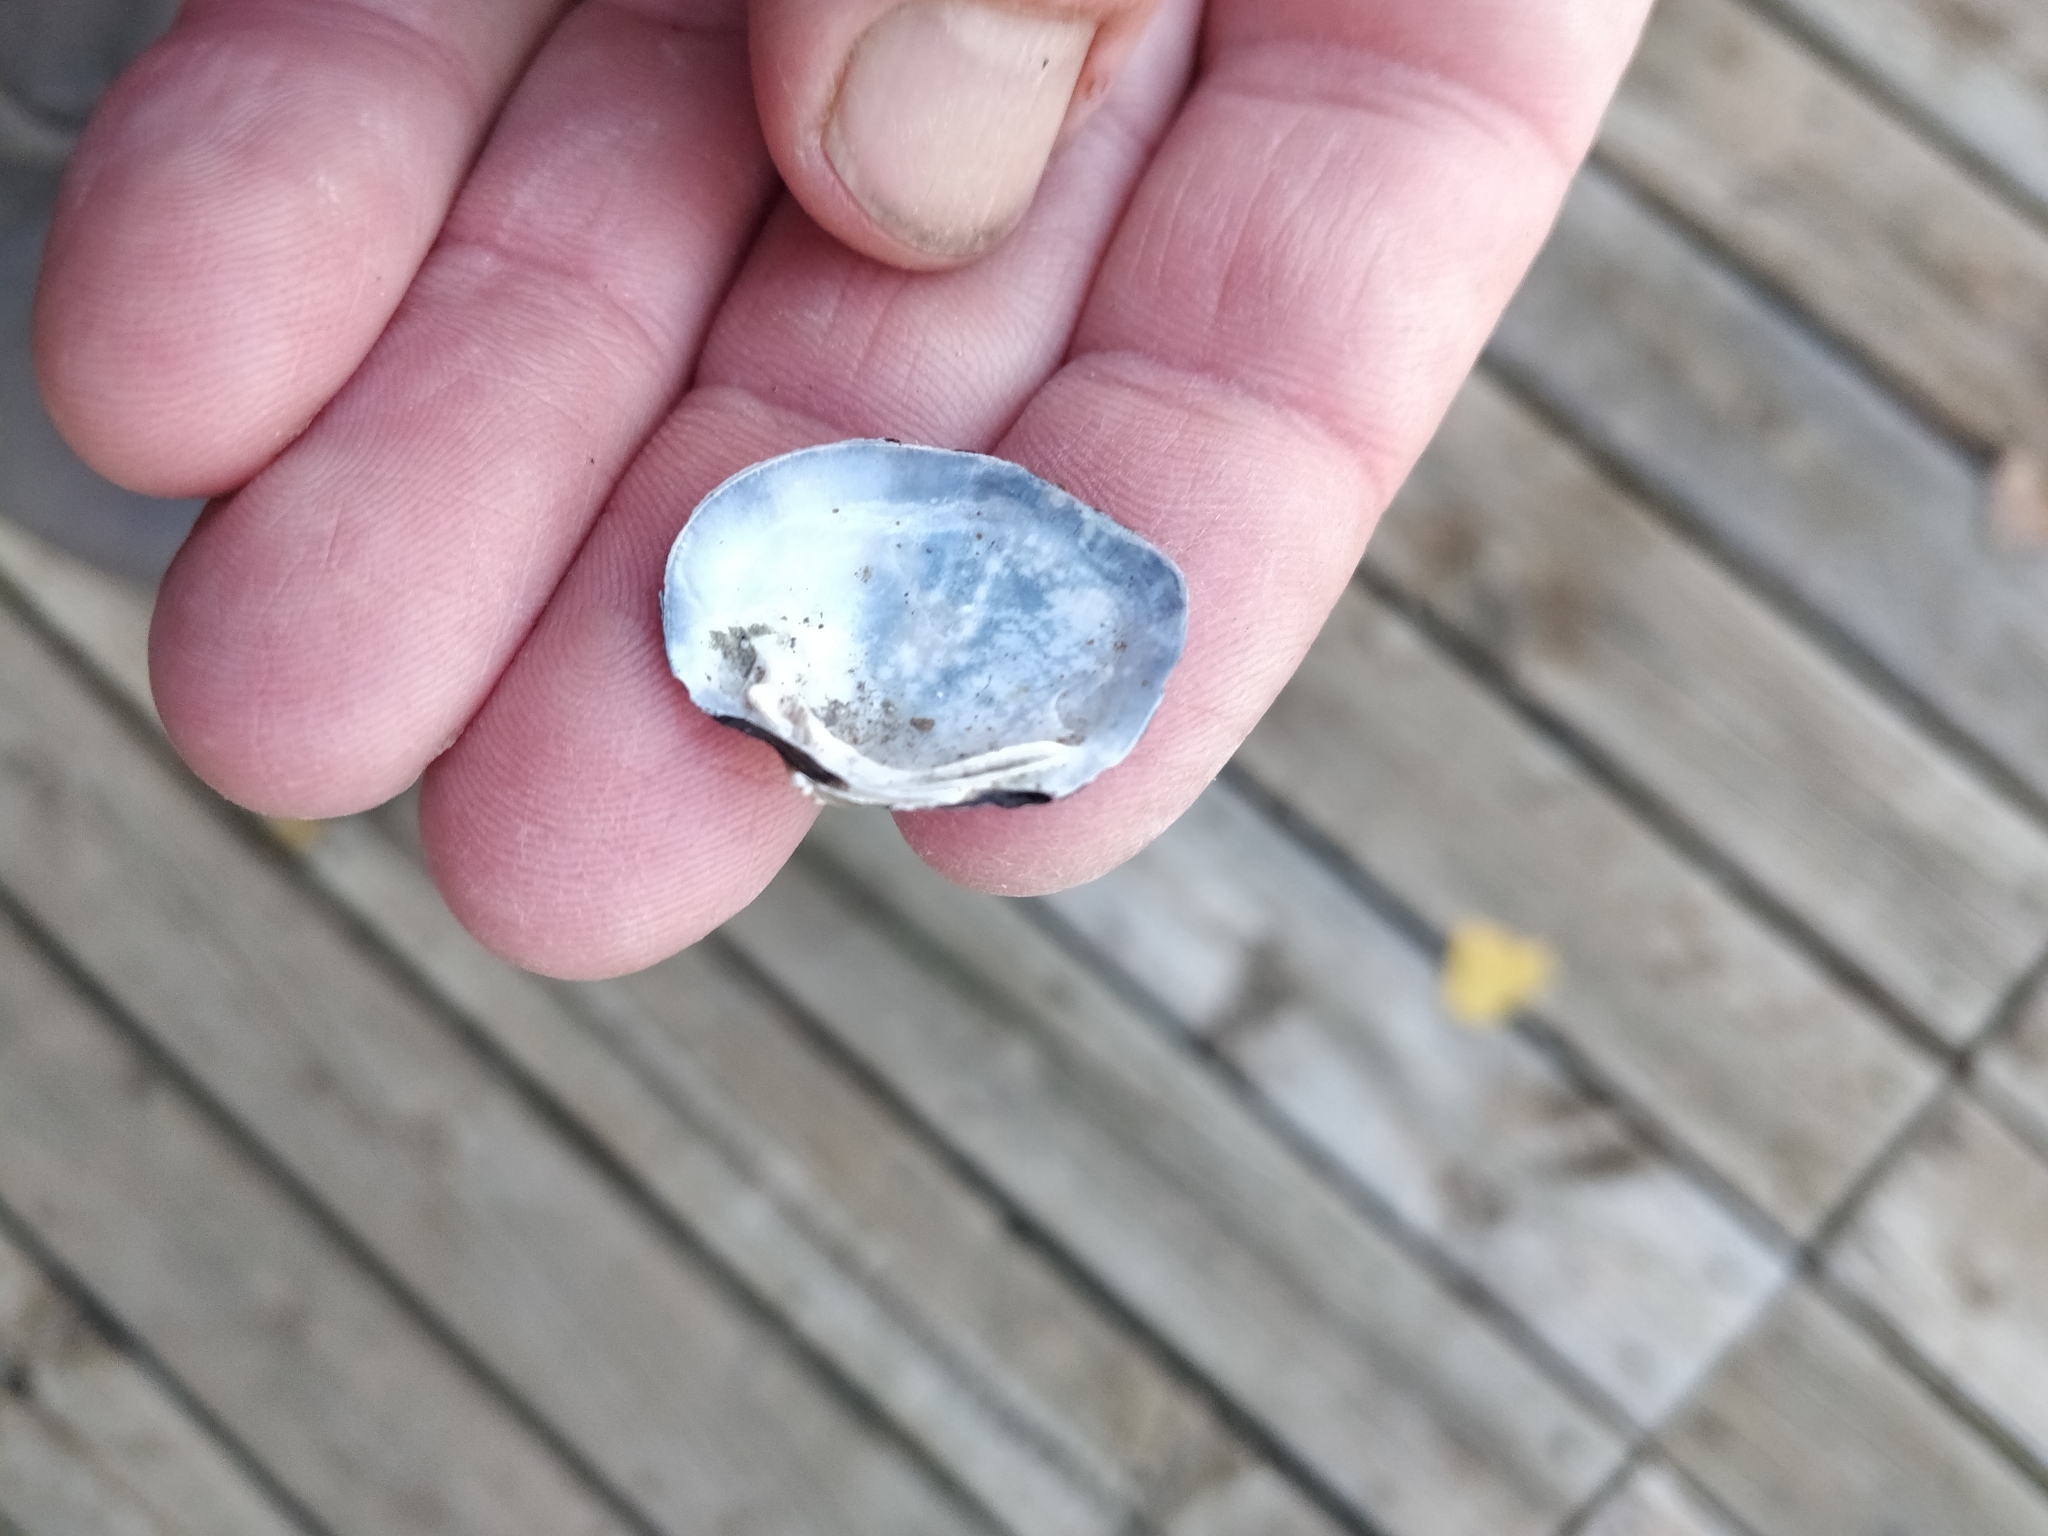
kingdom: Animalia
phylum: Mollusca
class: Bivalvia
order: Unionida
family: Unionidae
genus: Fusconaia
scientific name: Fusconaia flava
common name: Wabash pigtoe
